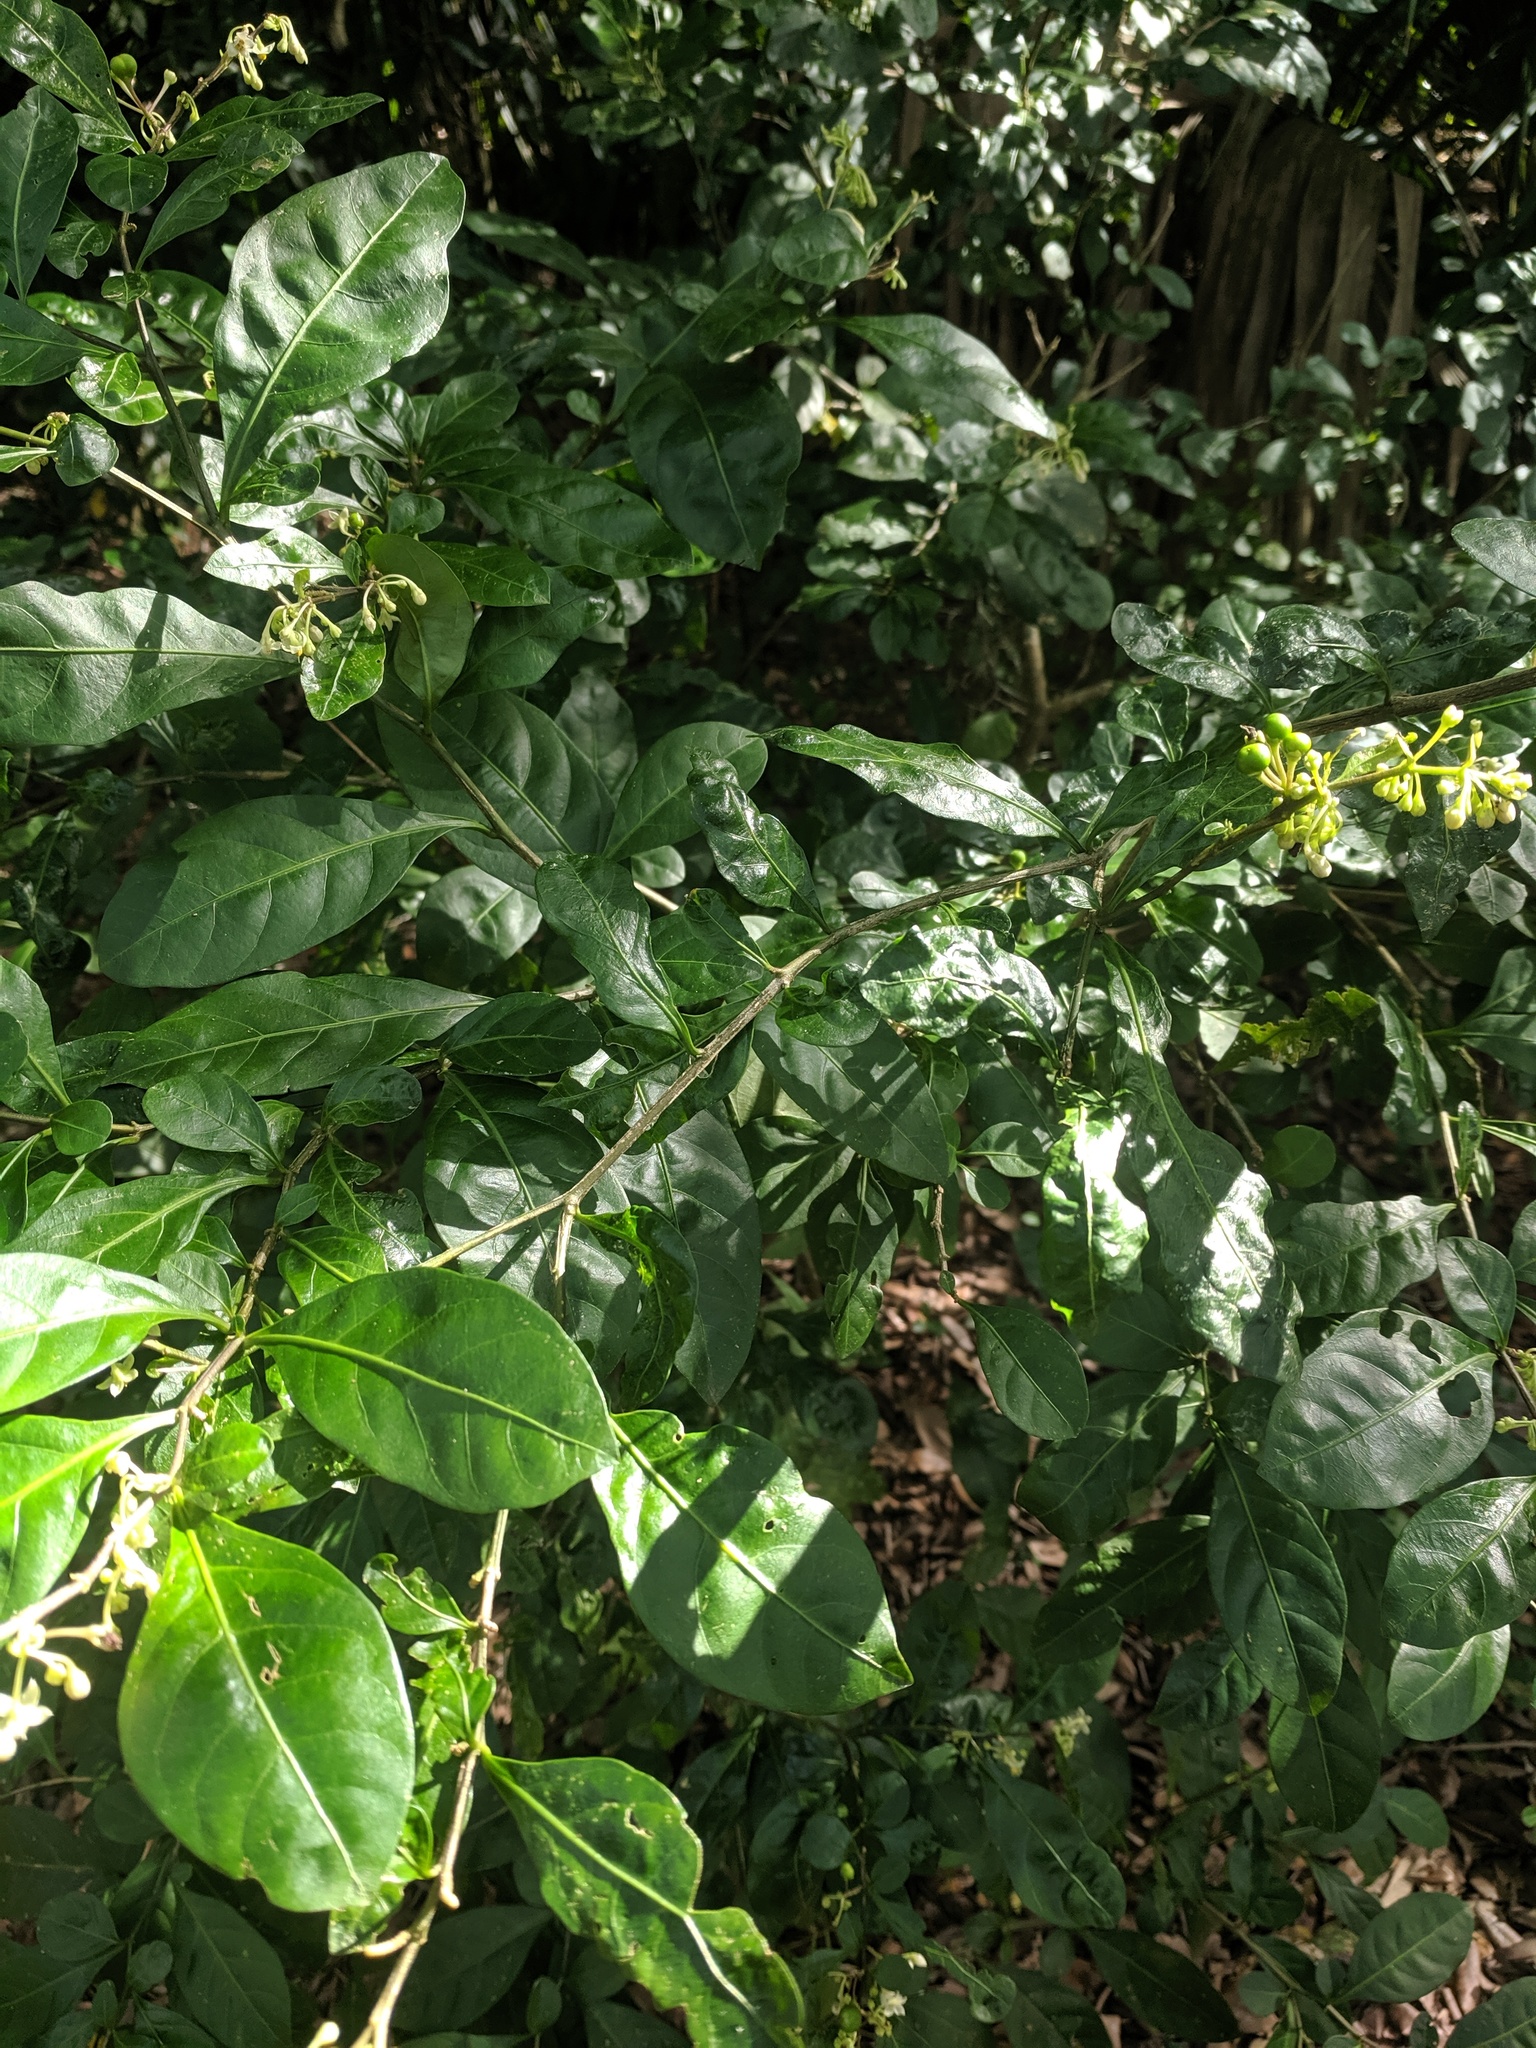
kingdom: Plantae
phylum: Tracheophyta
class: Magnoliopsida
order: Solanales
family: Solanaceae
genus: Solanum
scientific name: Solanum diphyllum
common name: Twoleaf nightshade
